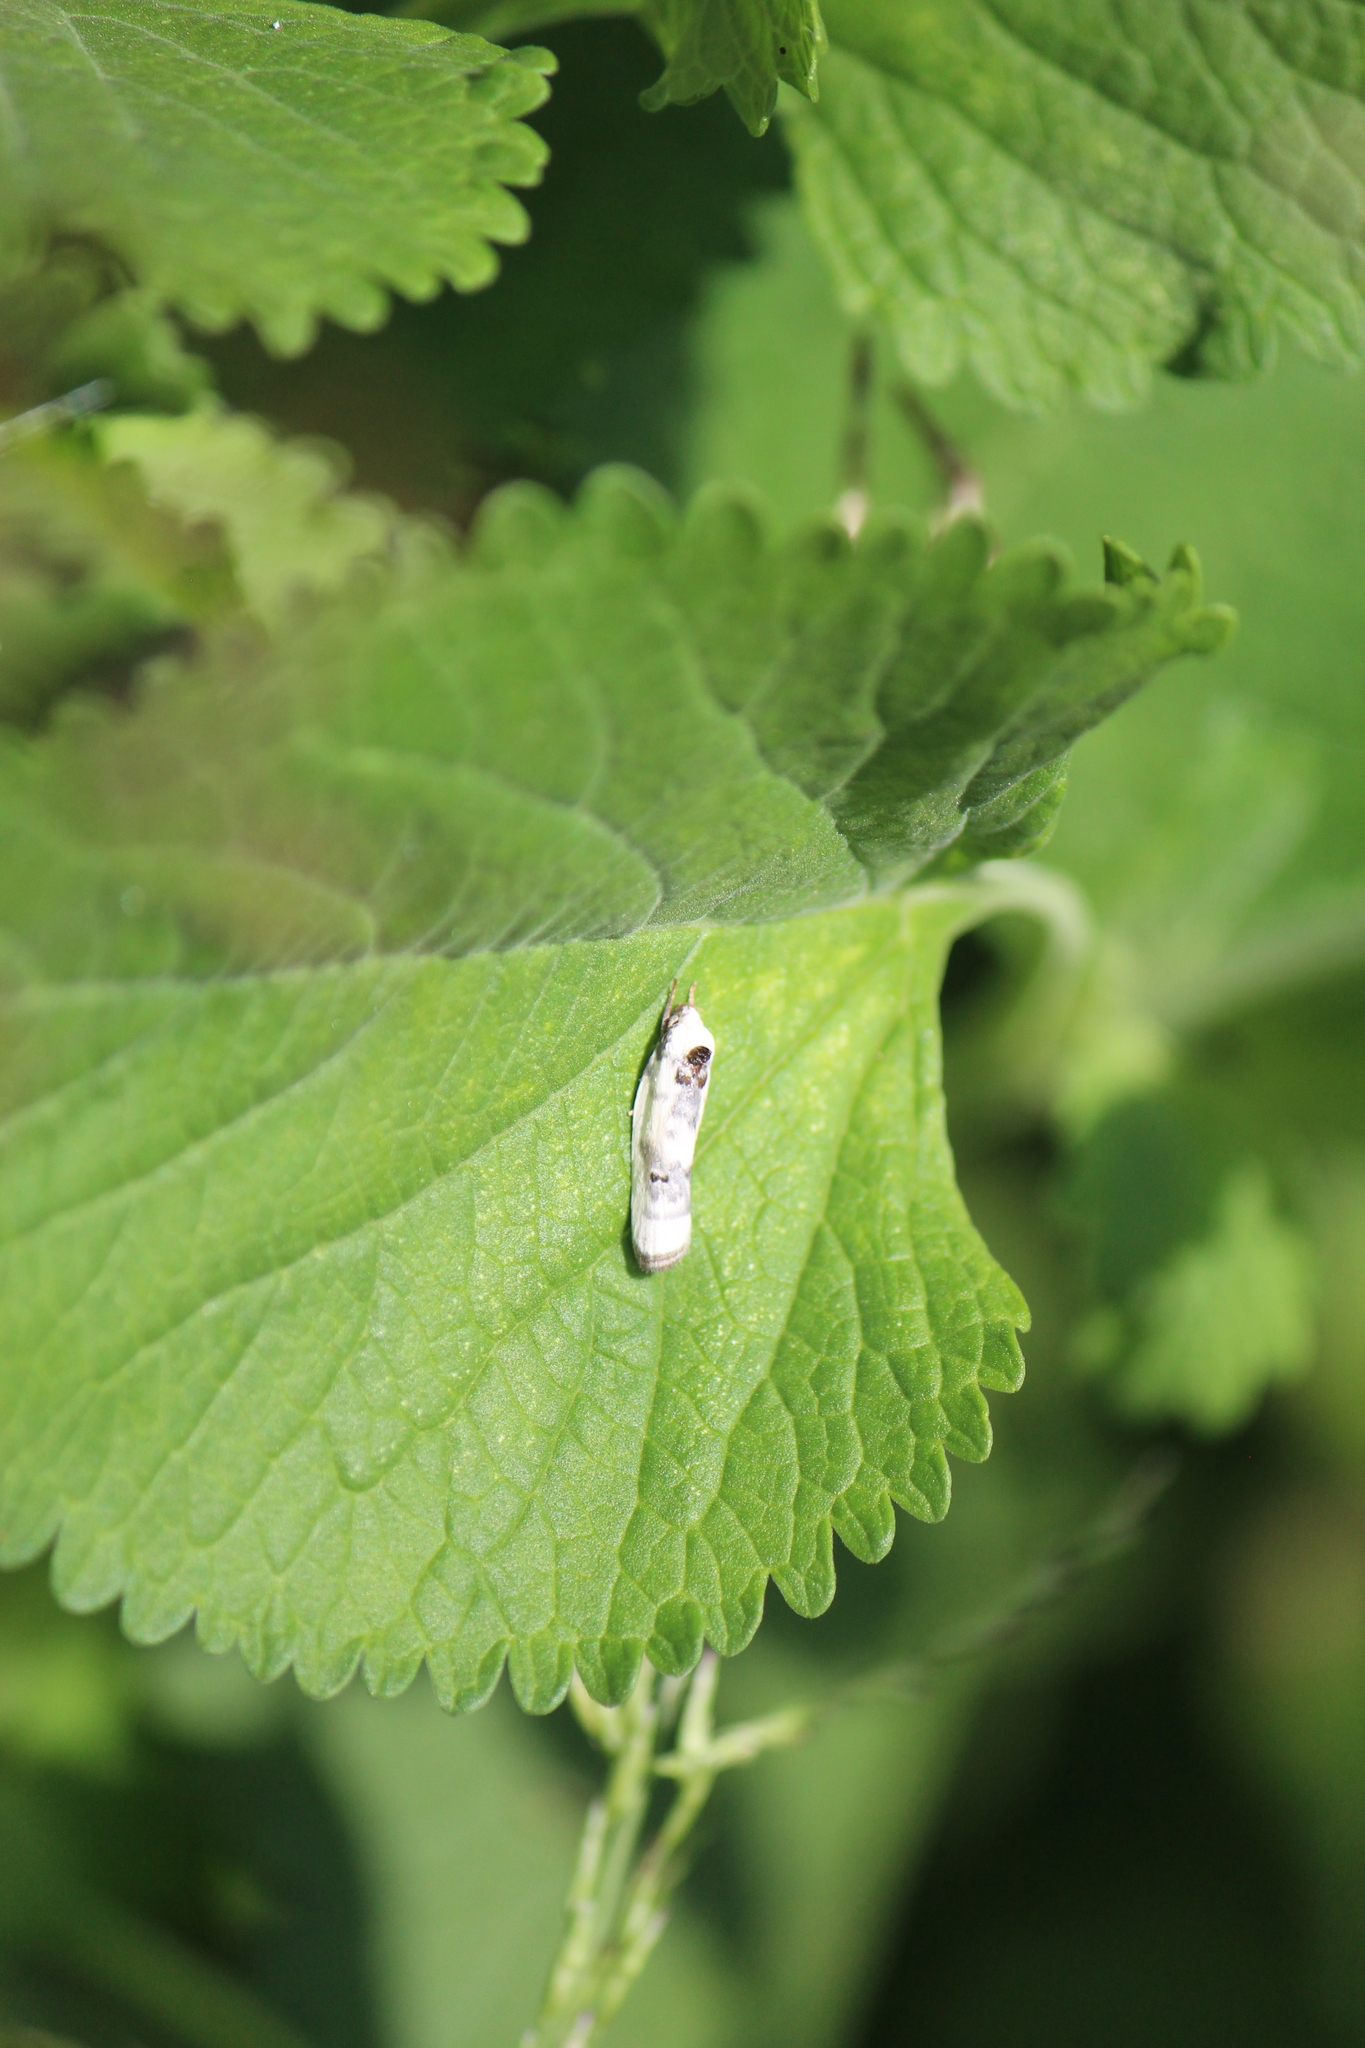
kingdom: Animalia
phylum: Arthropoda
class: Insecta
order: Lepidoptera
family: Depressariidae
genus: Antaeotricha
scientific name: Antaeotricha leucillana
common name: Pale gray bird-dropping moth
